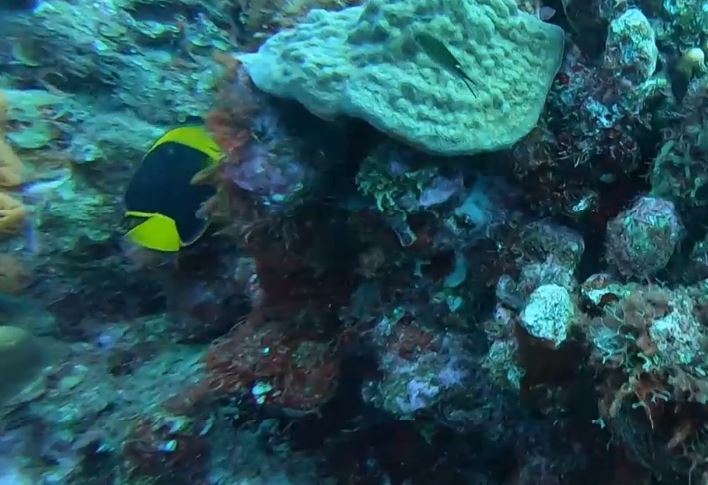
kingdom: Animalia
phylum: Chordata
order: Perciformes
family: Pomacanthidae
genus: Holacanthus
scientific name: Holacanthus tricolor
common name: Rock beauty
